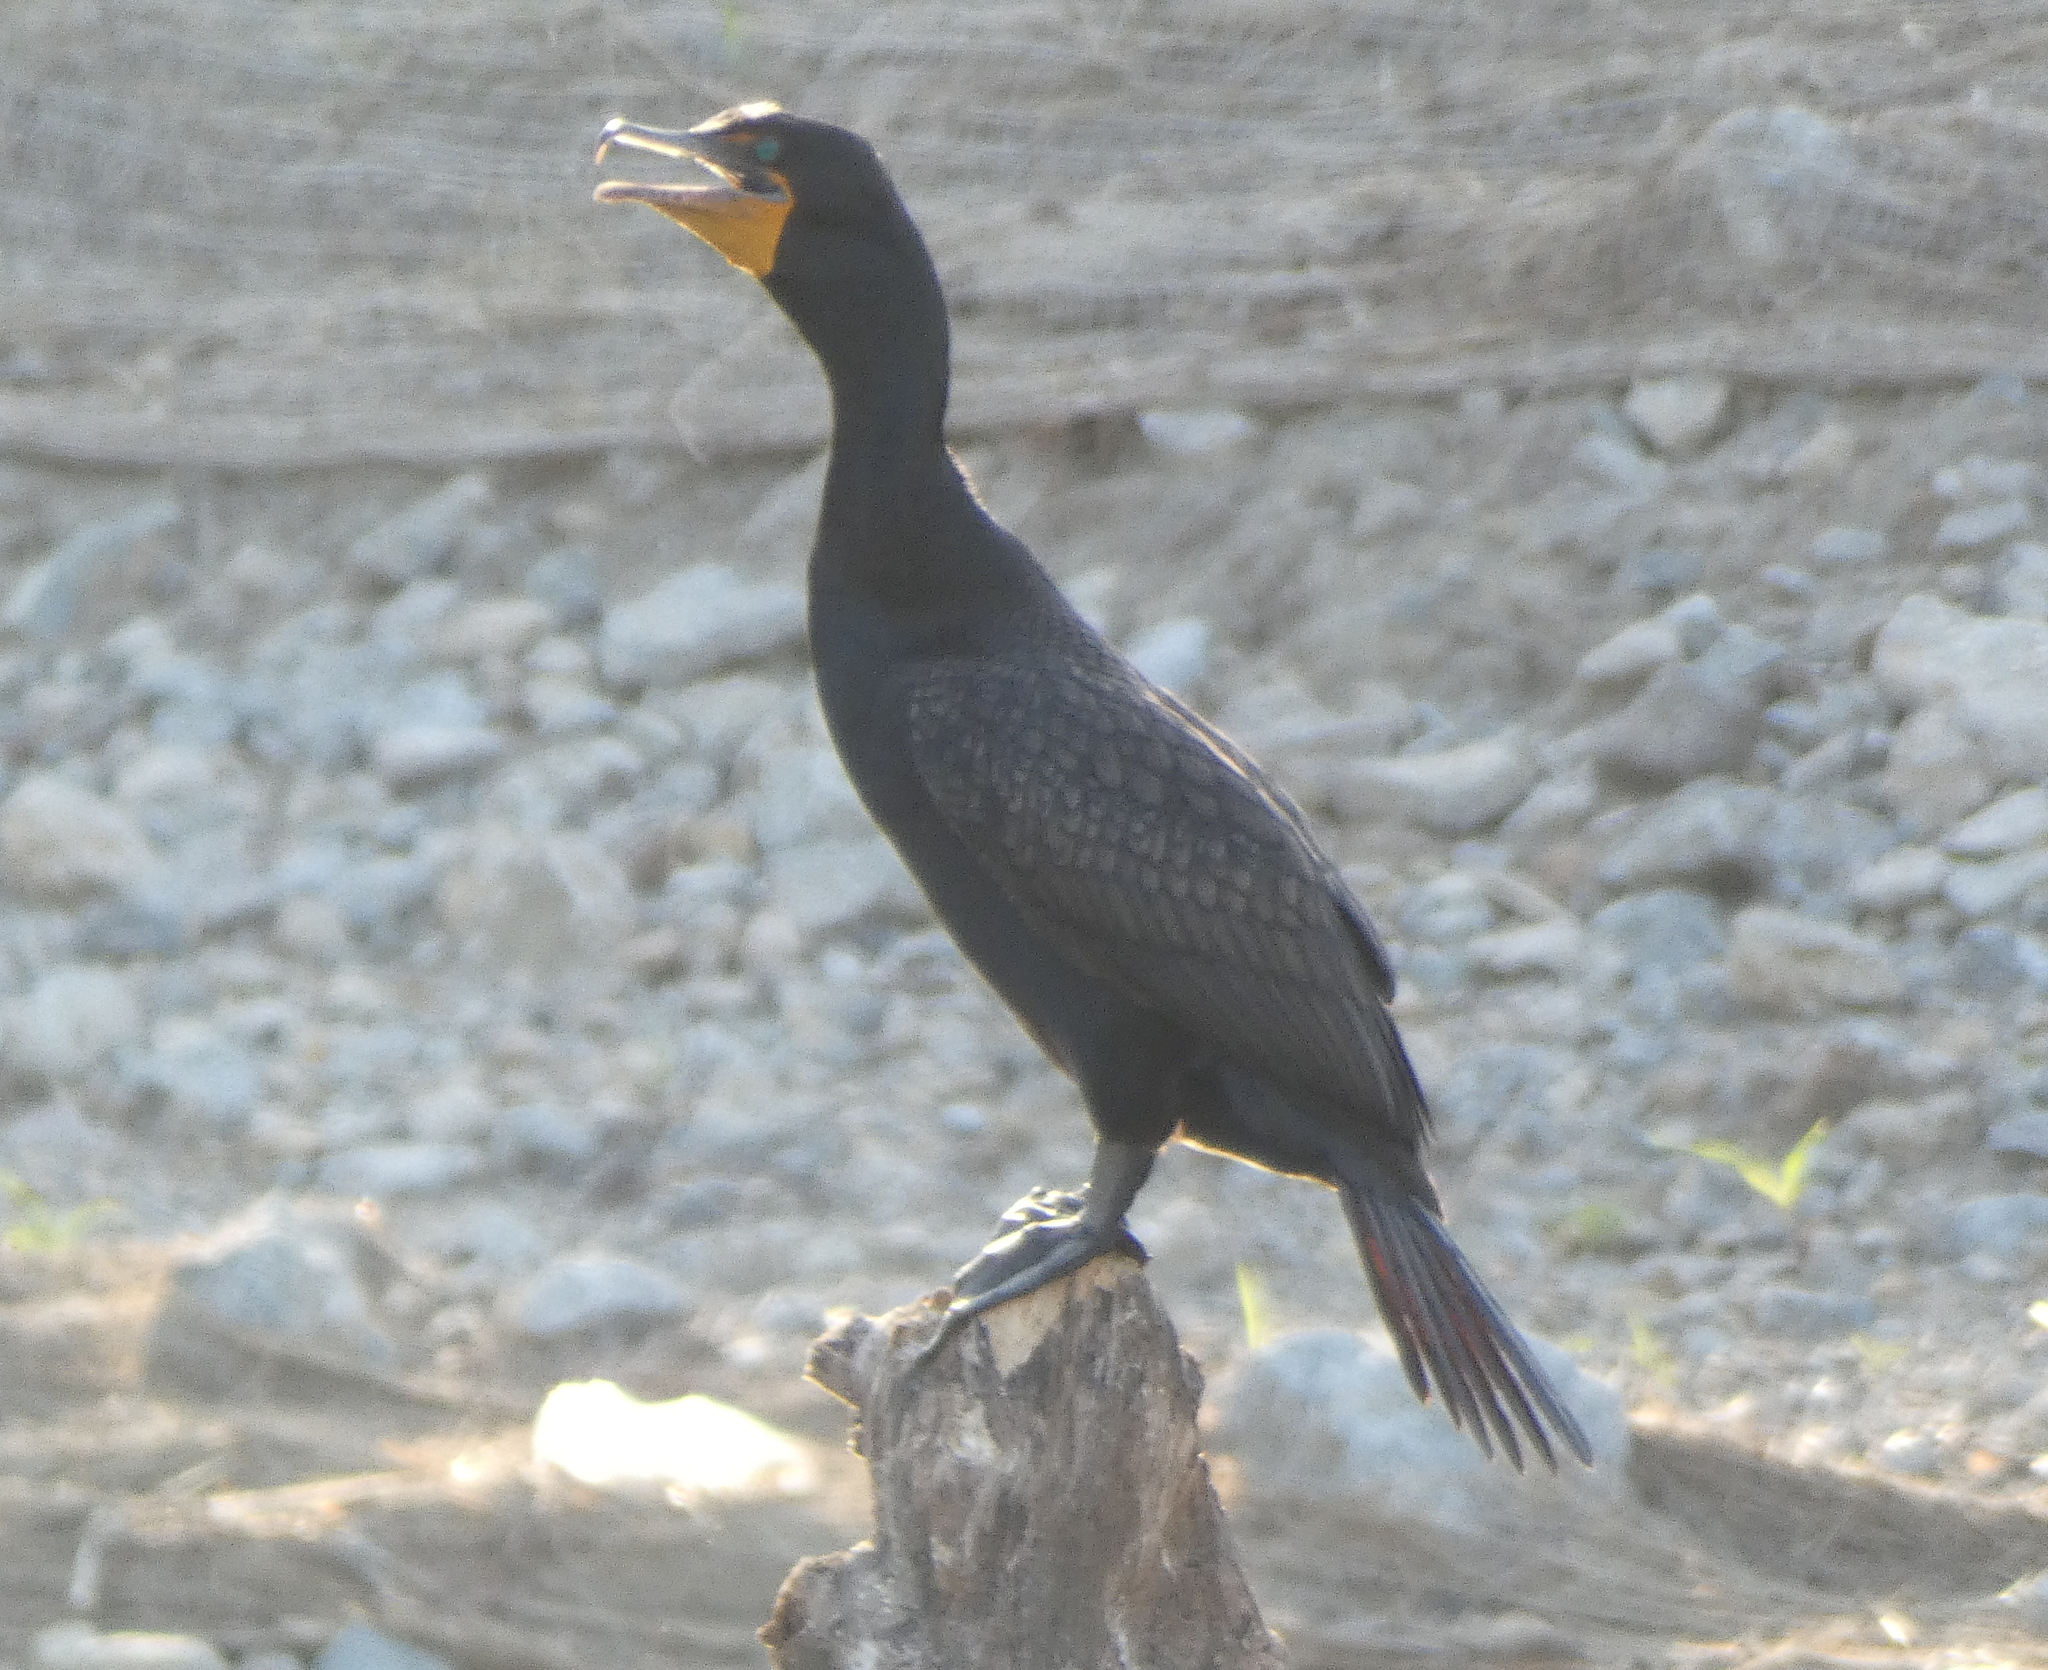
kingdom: Animalia
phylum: Chordata
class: Aves
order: Suliformes
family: Phalacrocoracidae
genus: Phalacrocorax
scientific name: Phalacrocorax auritus
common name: Double-crested cormorant
